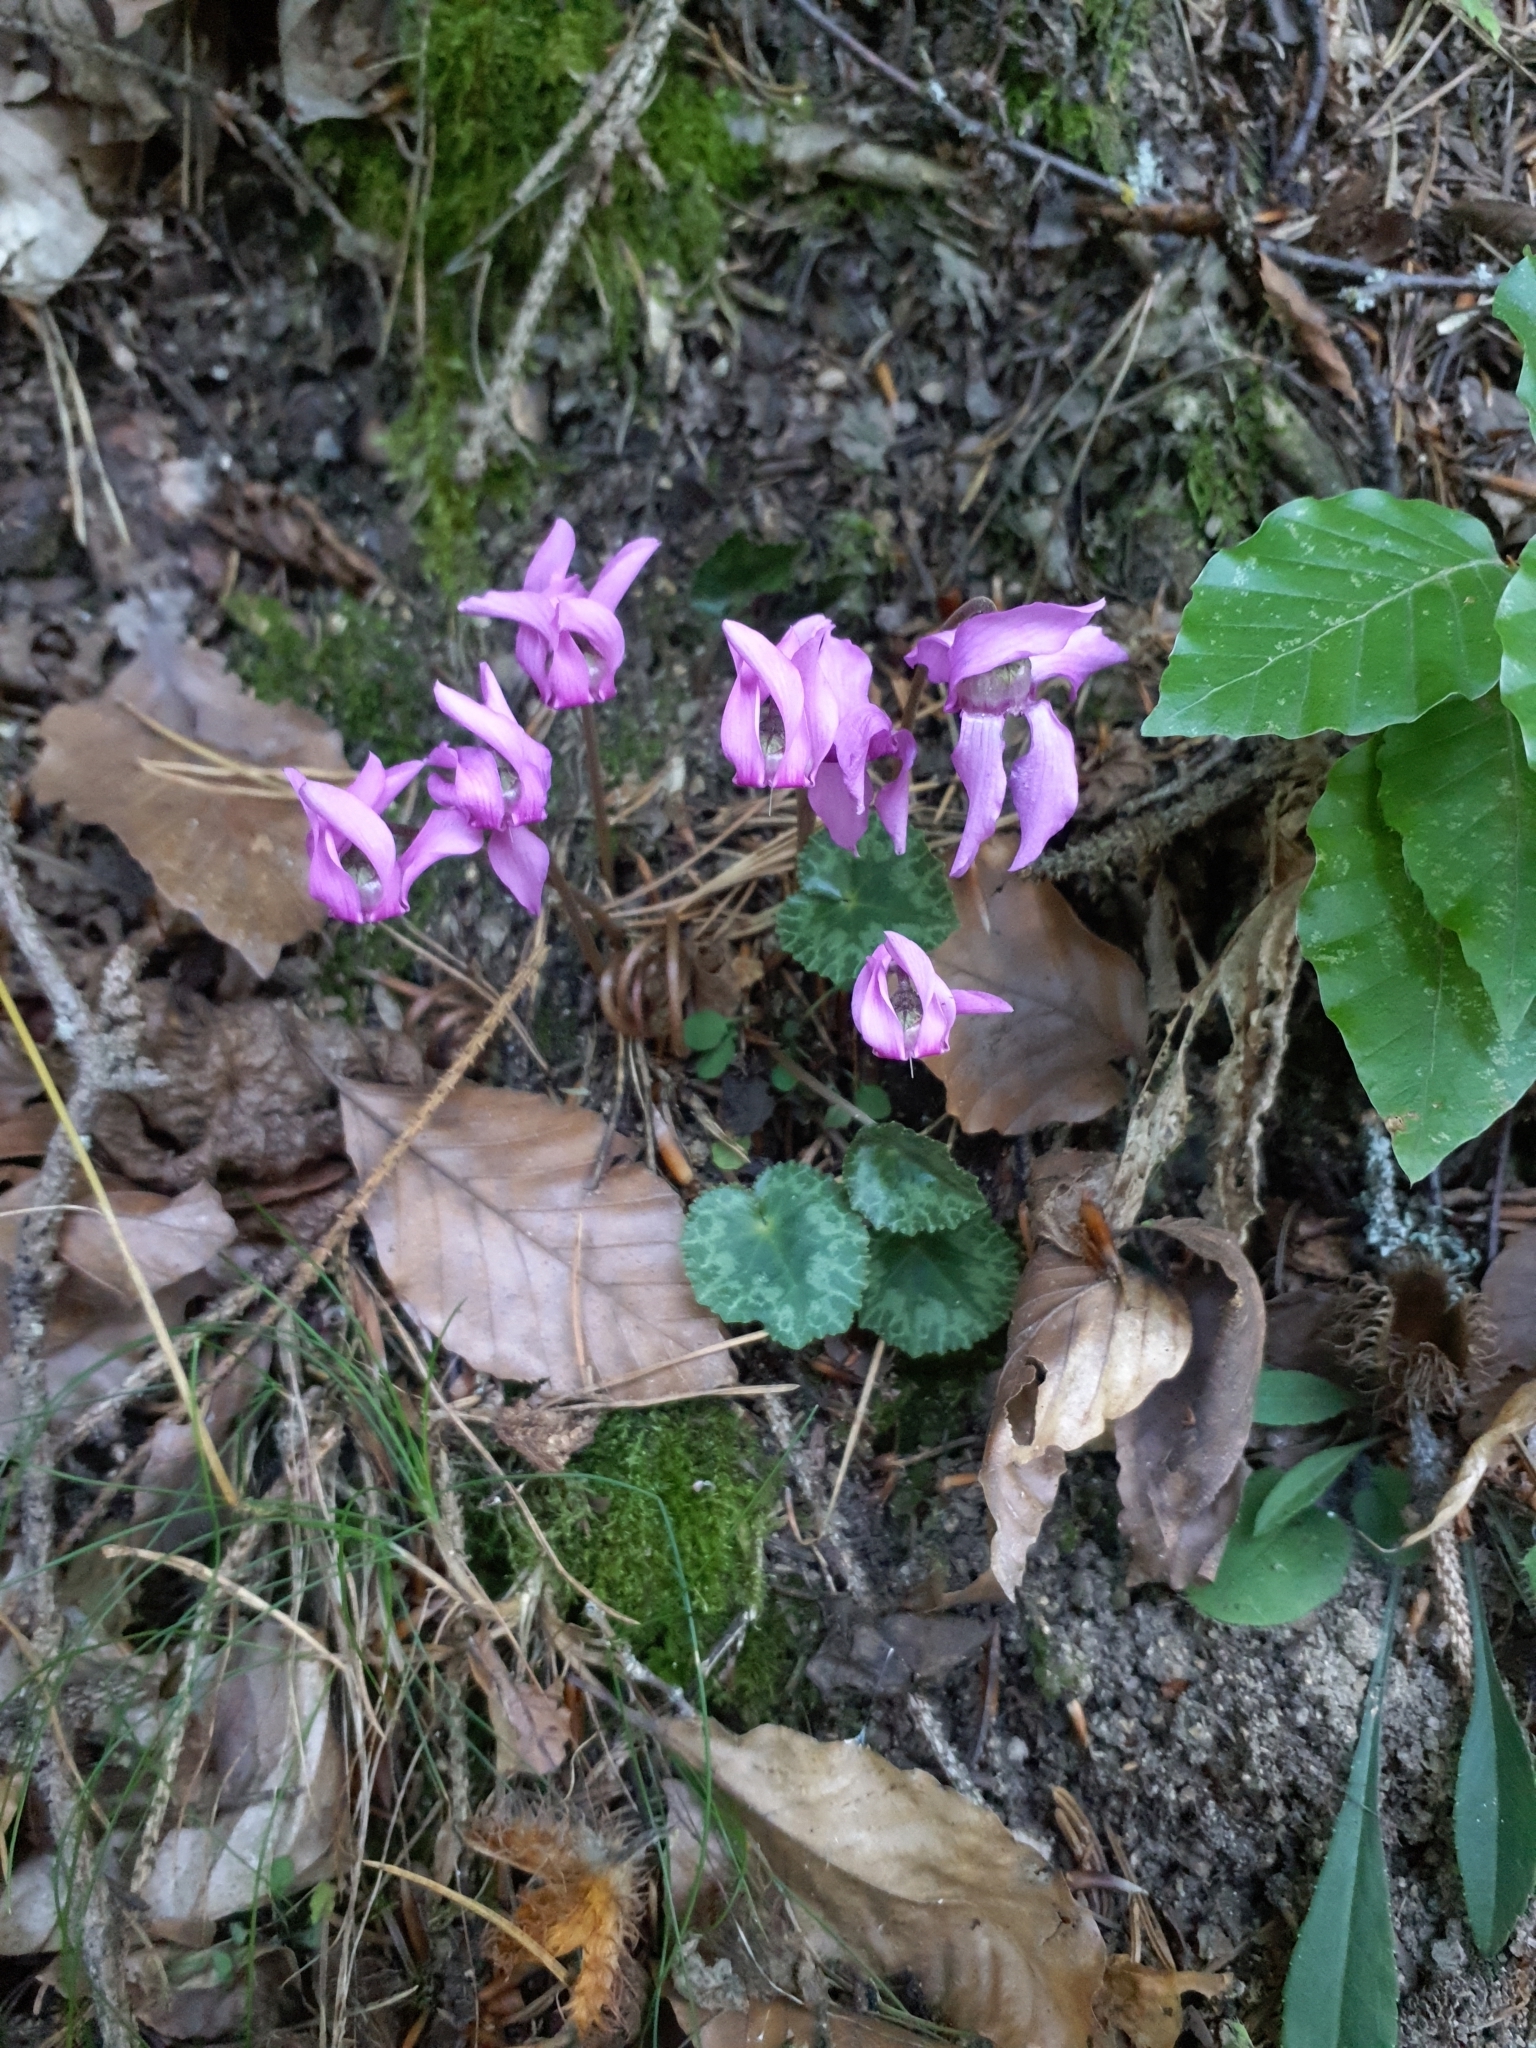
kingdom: Plantae
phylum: Tracheophyta
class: Magnoliopsida
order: Ericales
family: Primulaceae
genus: Cyclamen
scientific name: Cyclamen purpurascens
